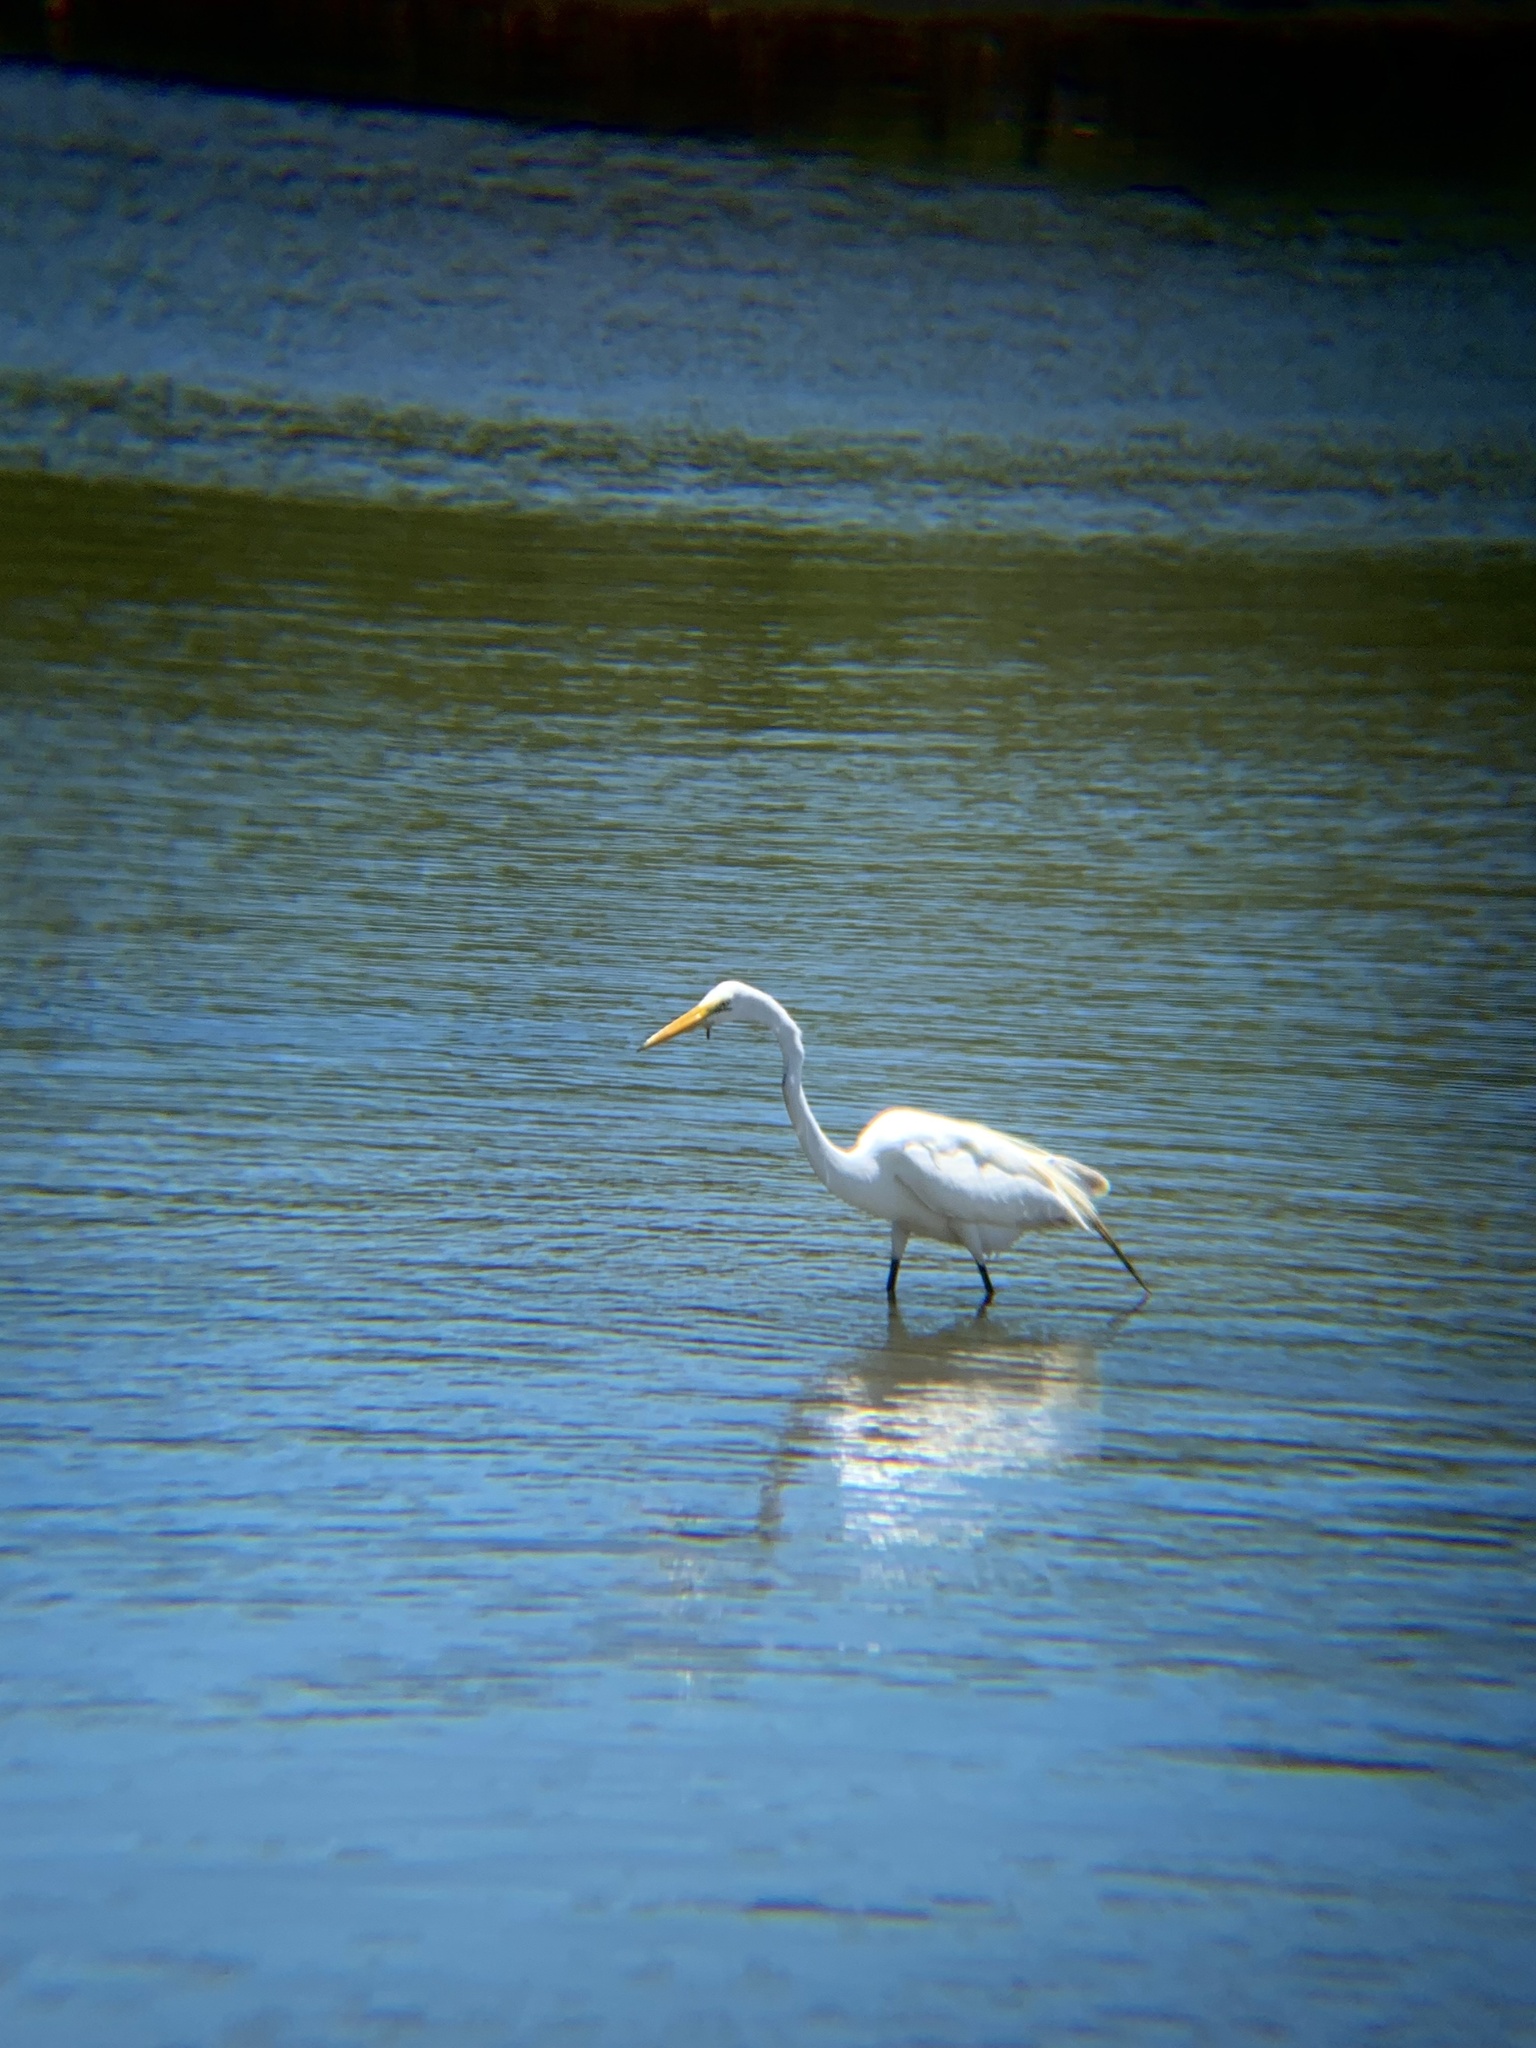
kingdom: Animalia
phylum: Chordata
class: Aves
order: Pelecaniformes
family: Ardeidae
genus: Ardea
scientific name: Ardea alba
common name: Great egret
